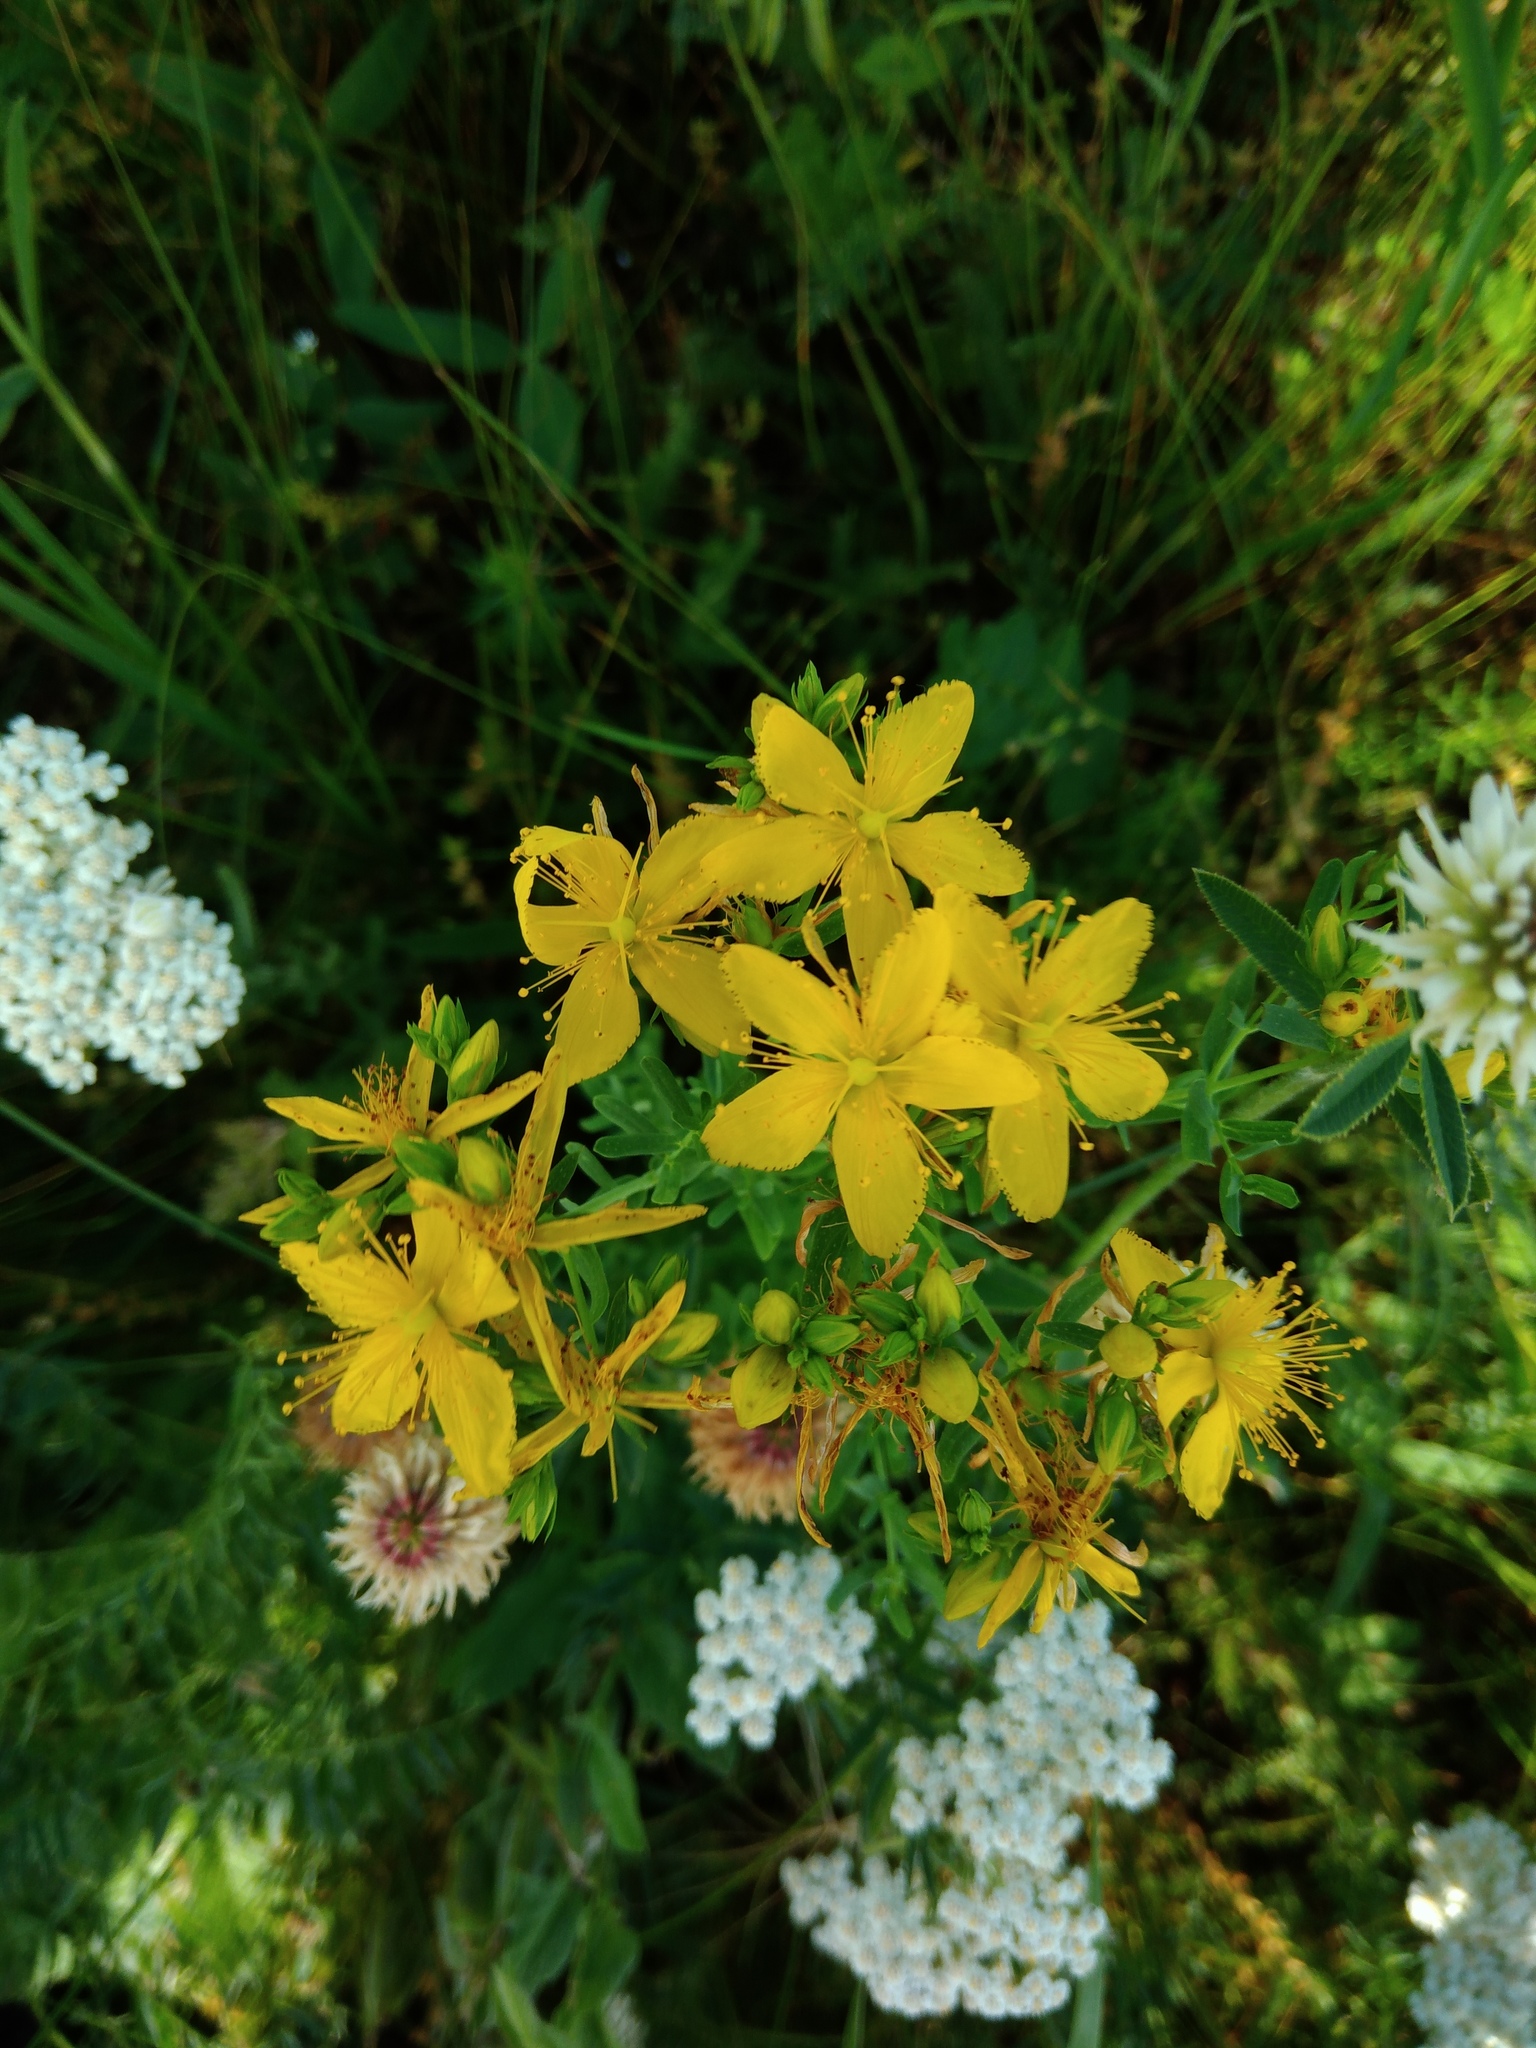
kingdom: Plantae
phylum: Tracheophyta
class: Magnoliopsida
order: Malpighiales
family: Hypericaceae
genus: Hypericum
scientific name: Hypericum perforatum
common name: Common st. johnswort
